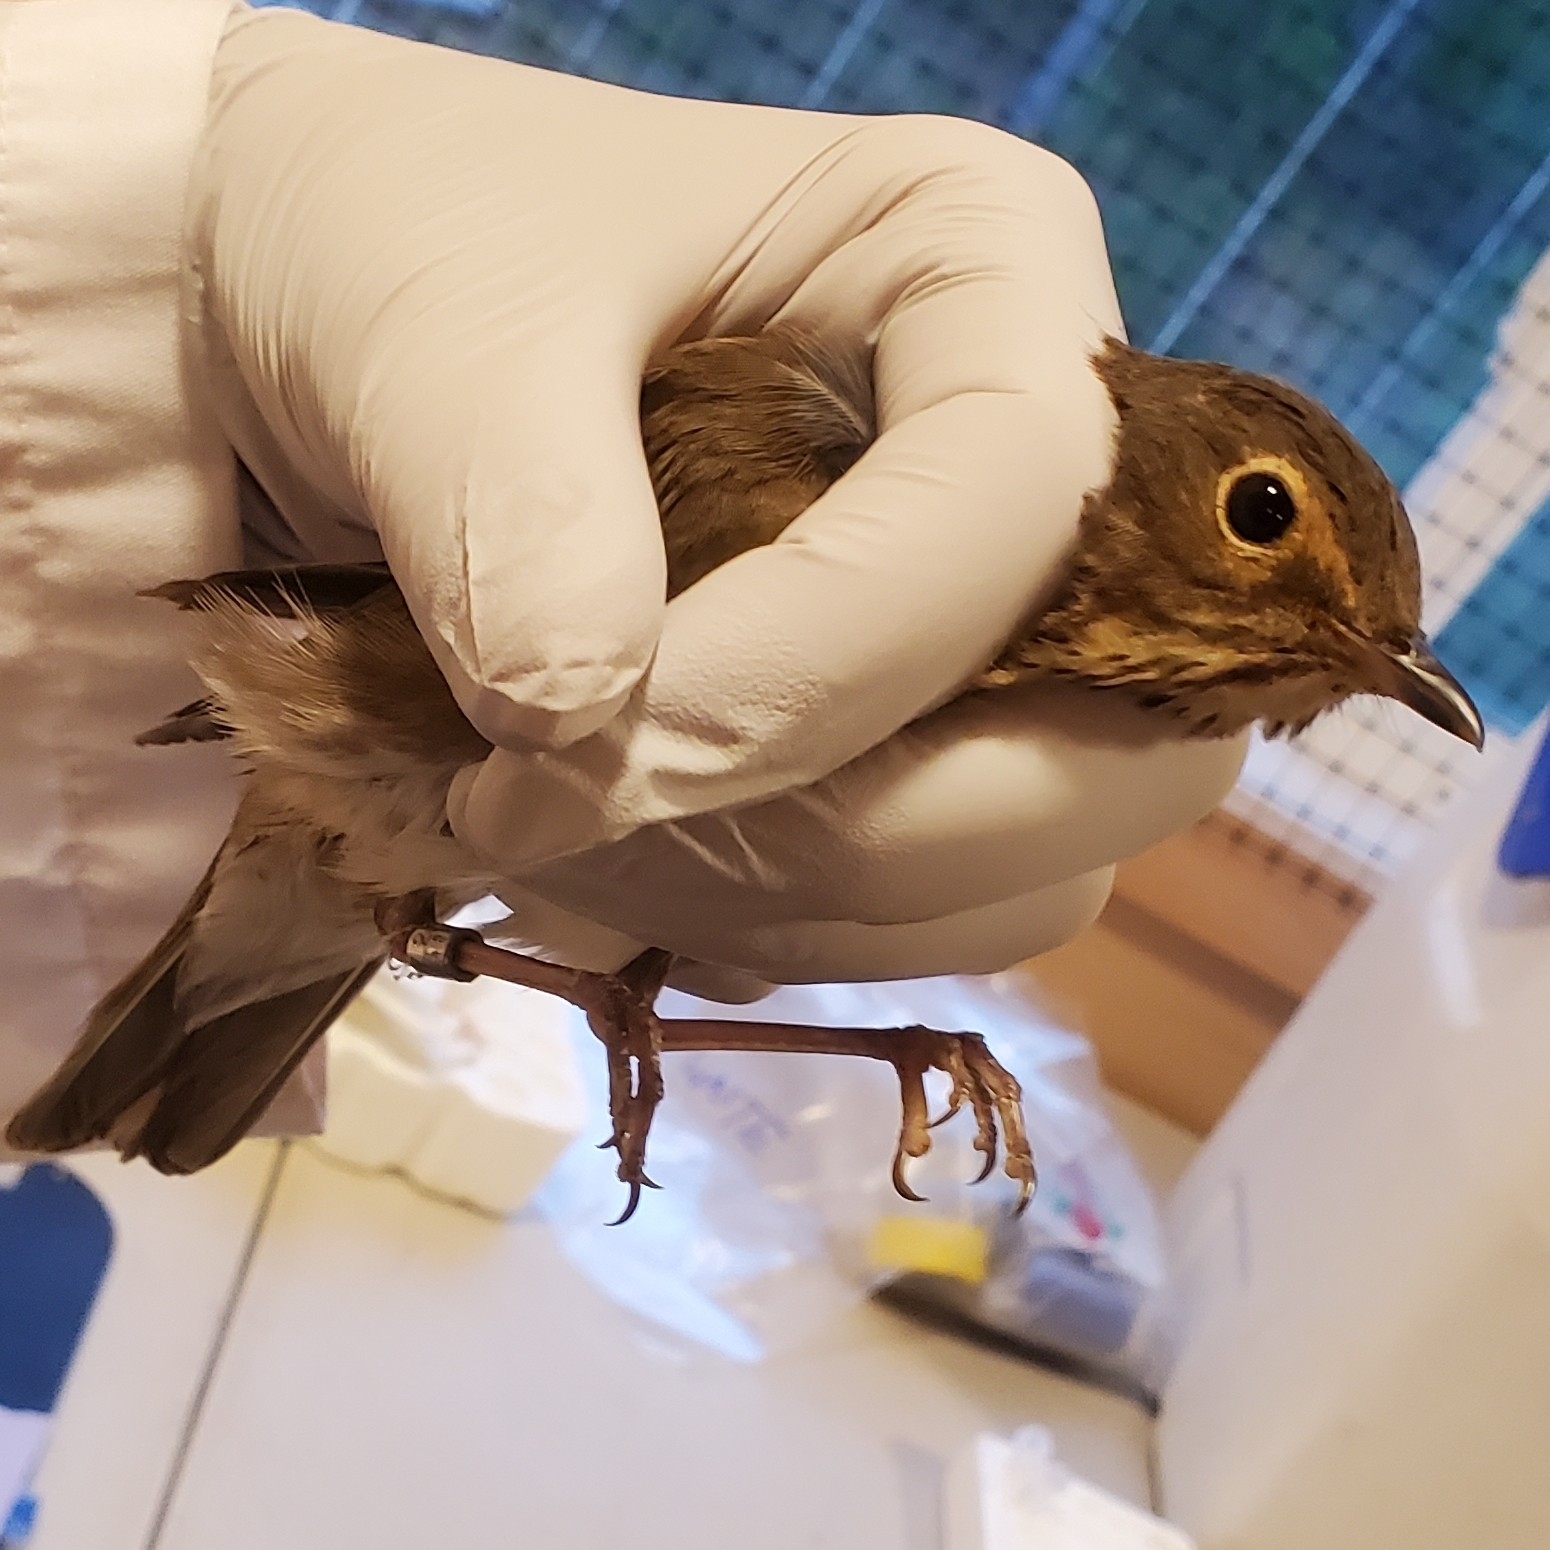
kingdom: Animalia
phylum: Chordata
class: Aves
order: Passeriformes
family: Turdidae
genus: Catharus
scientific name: Catharus ustulatus
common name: Swainson's thrush
